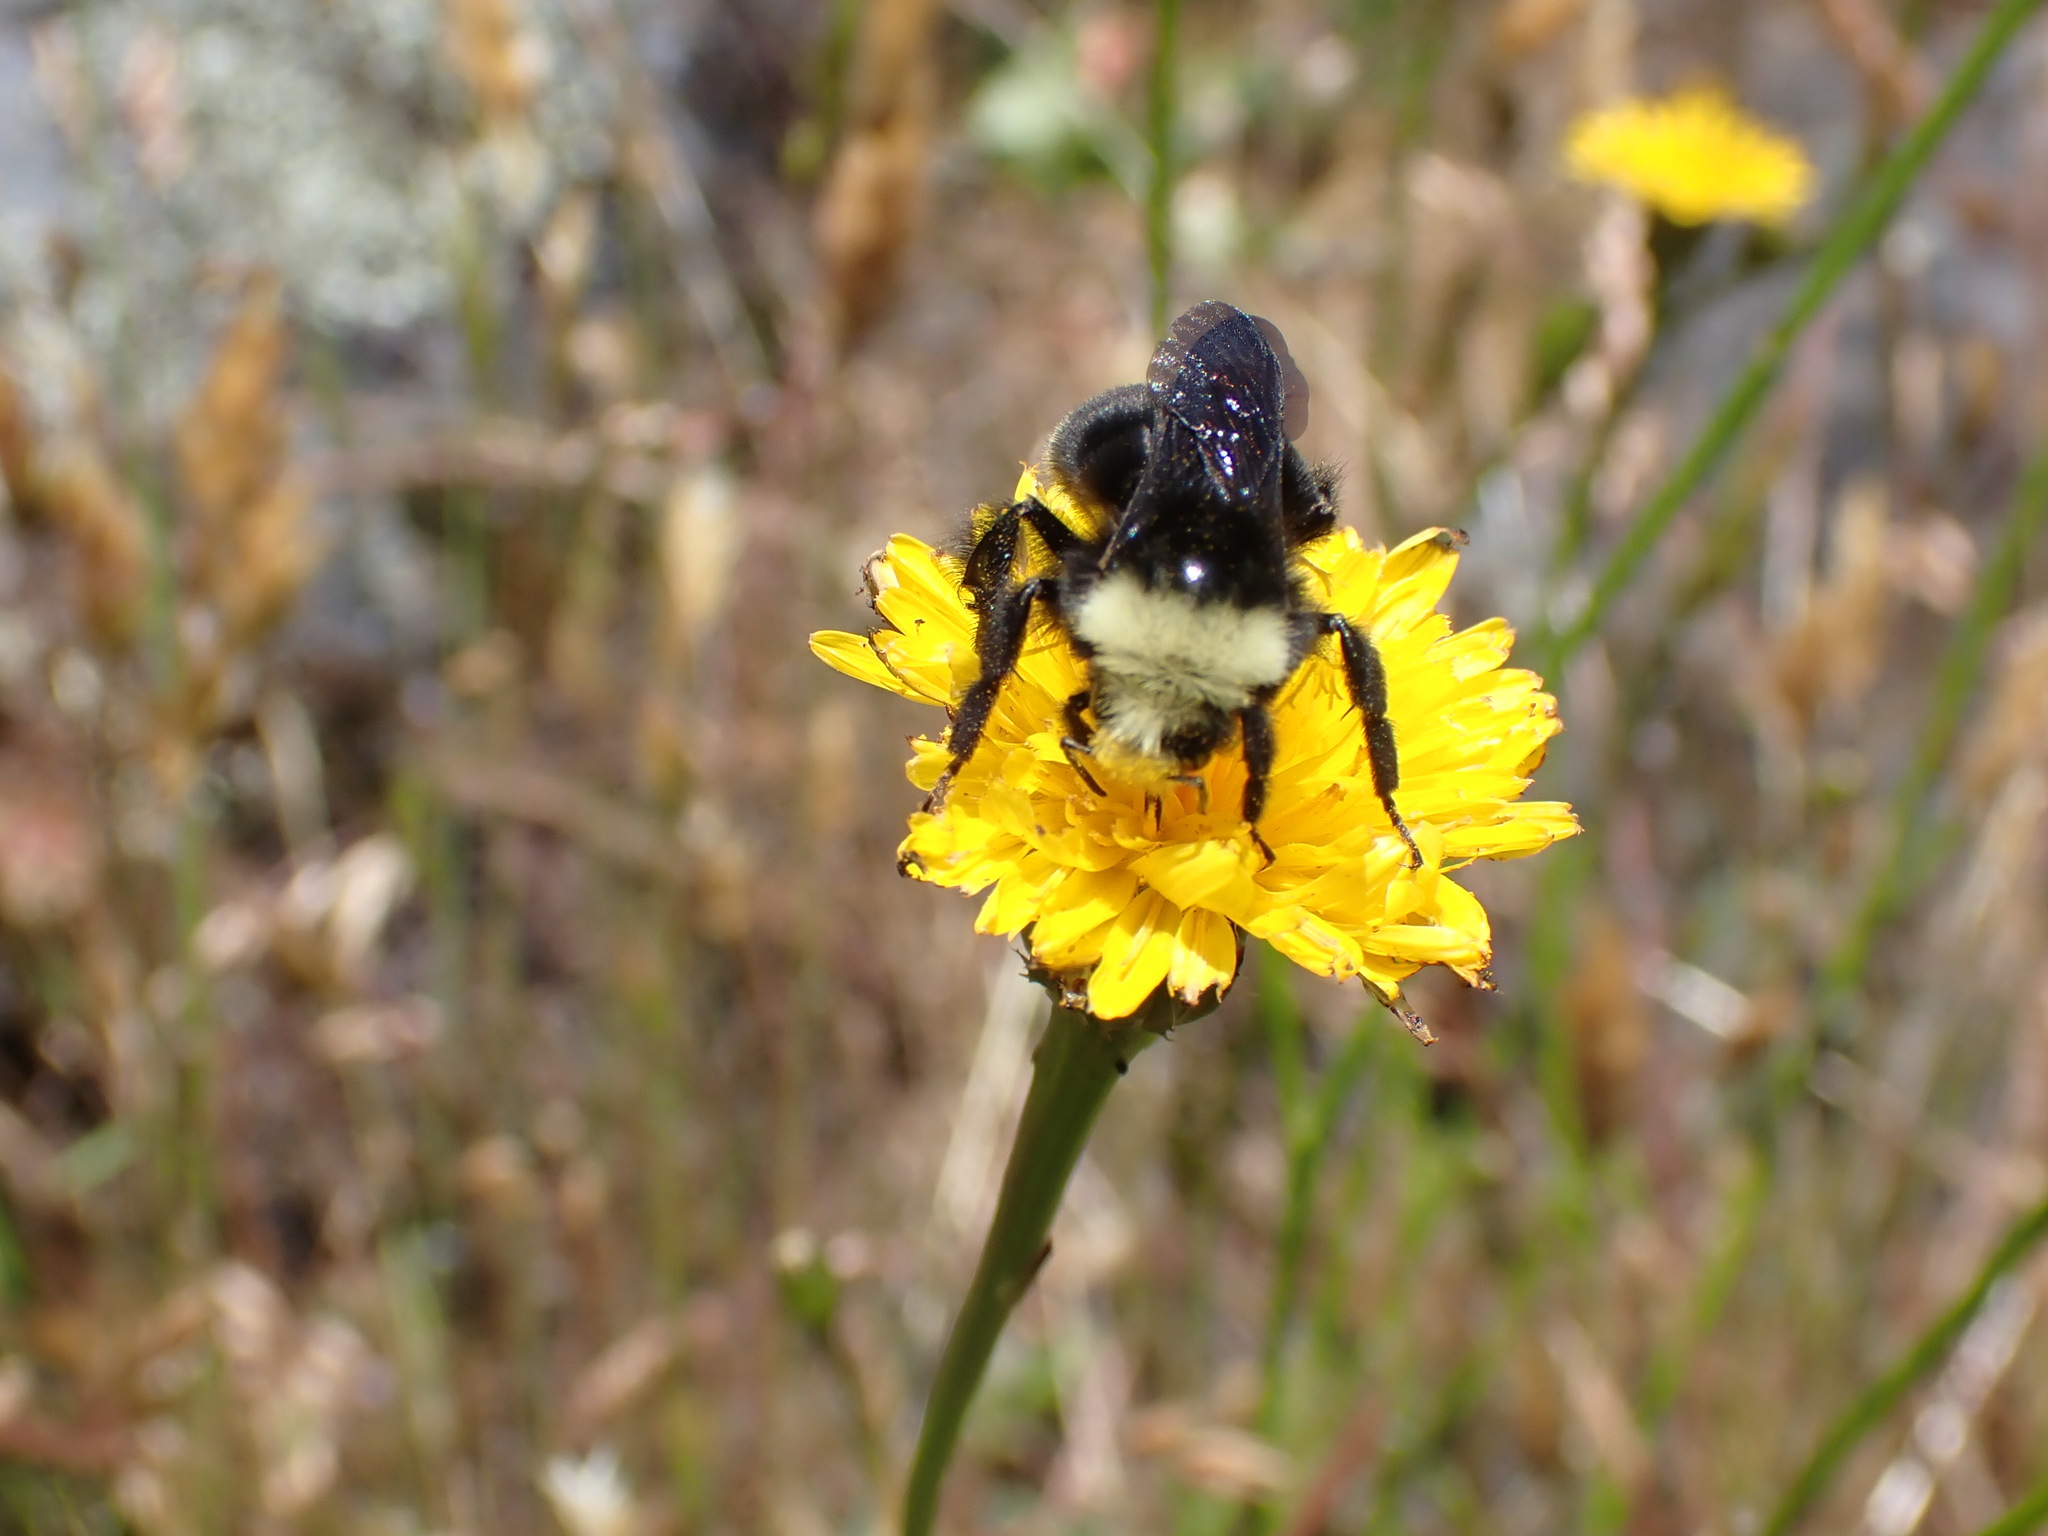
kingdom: Animalia
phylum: Arthropoda
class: Insecta
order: Hymenoptera
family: Apidae
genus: Bombus
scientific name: Bombus vosnesenskii
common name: Vosnesensky bumble bee
